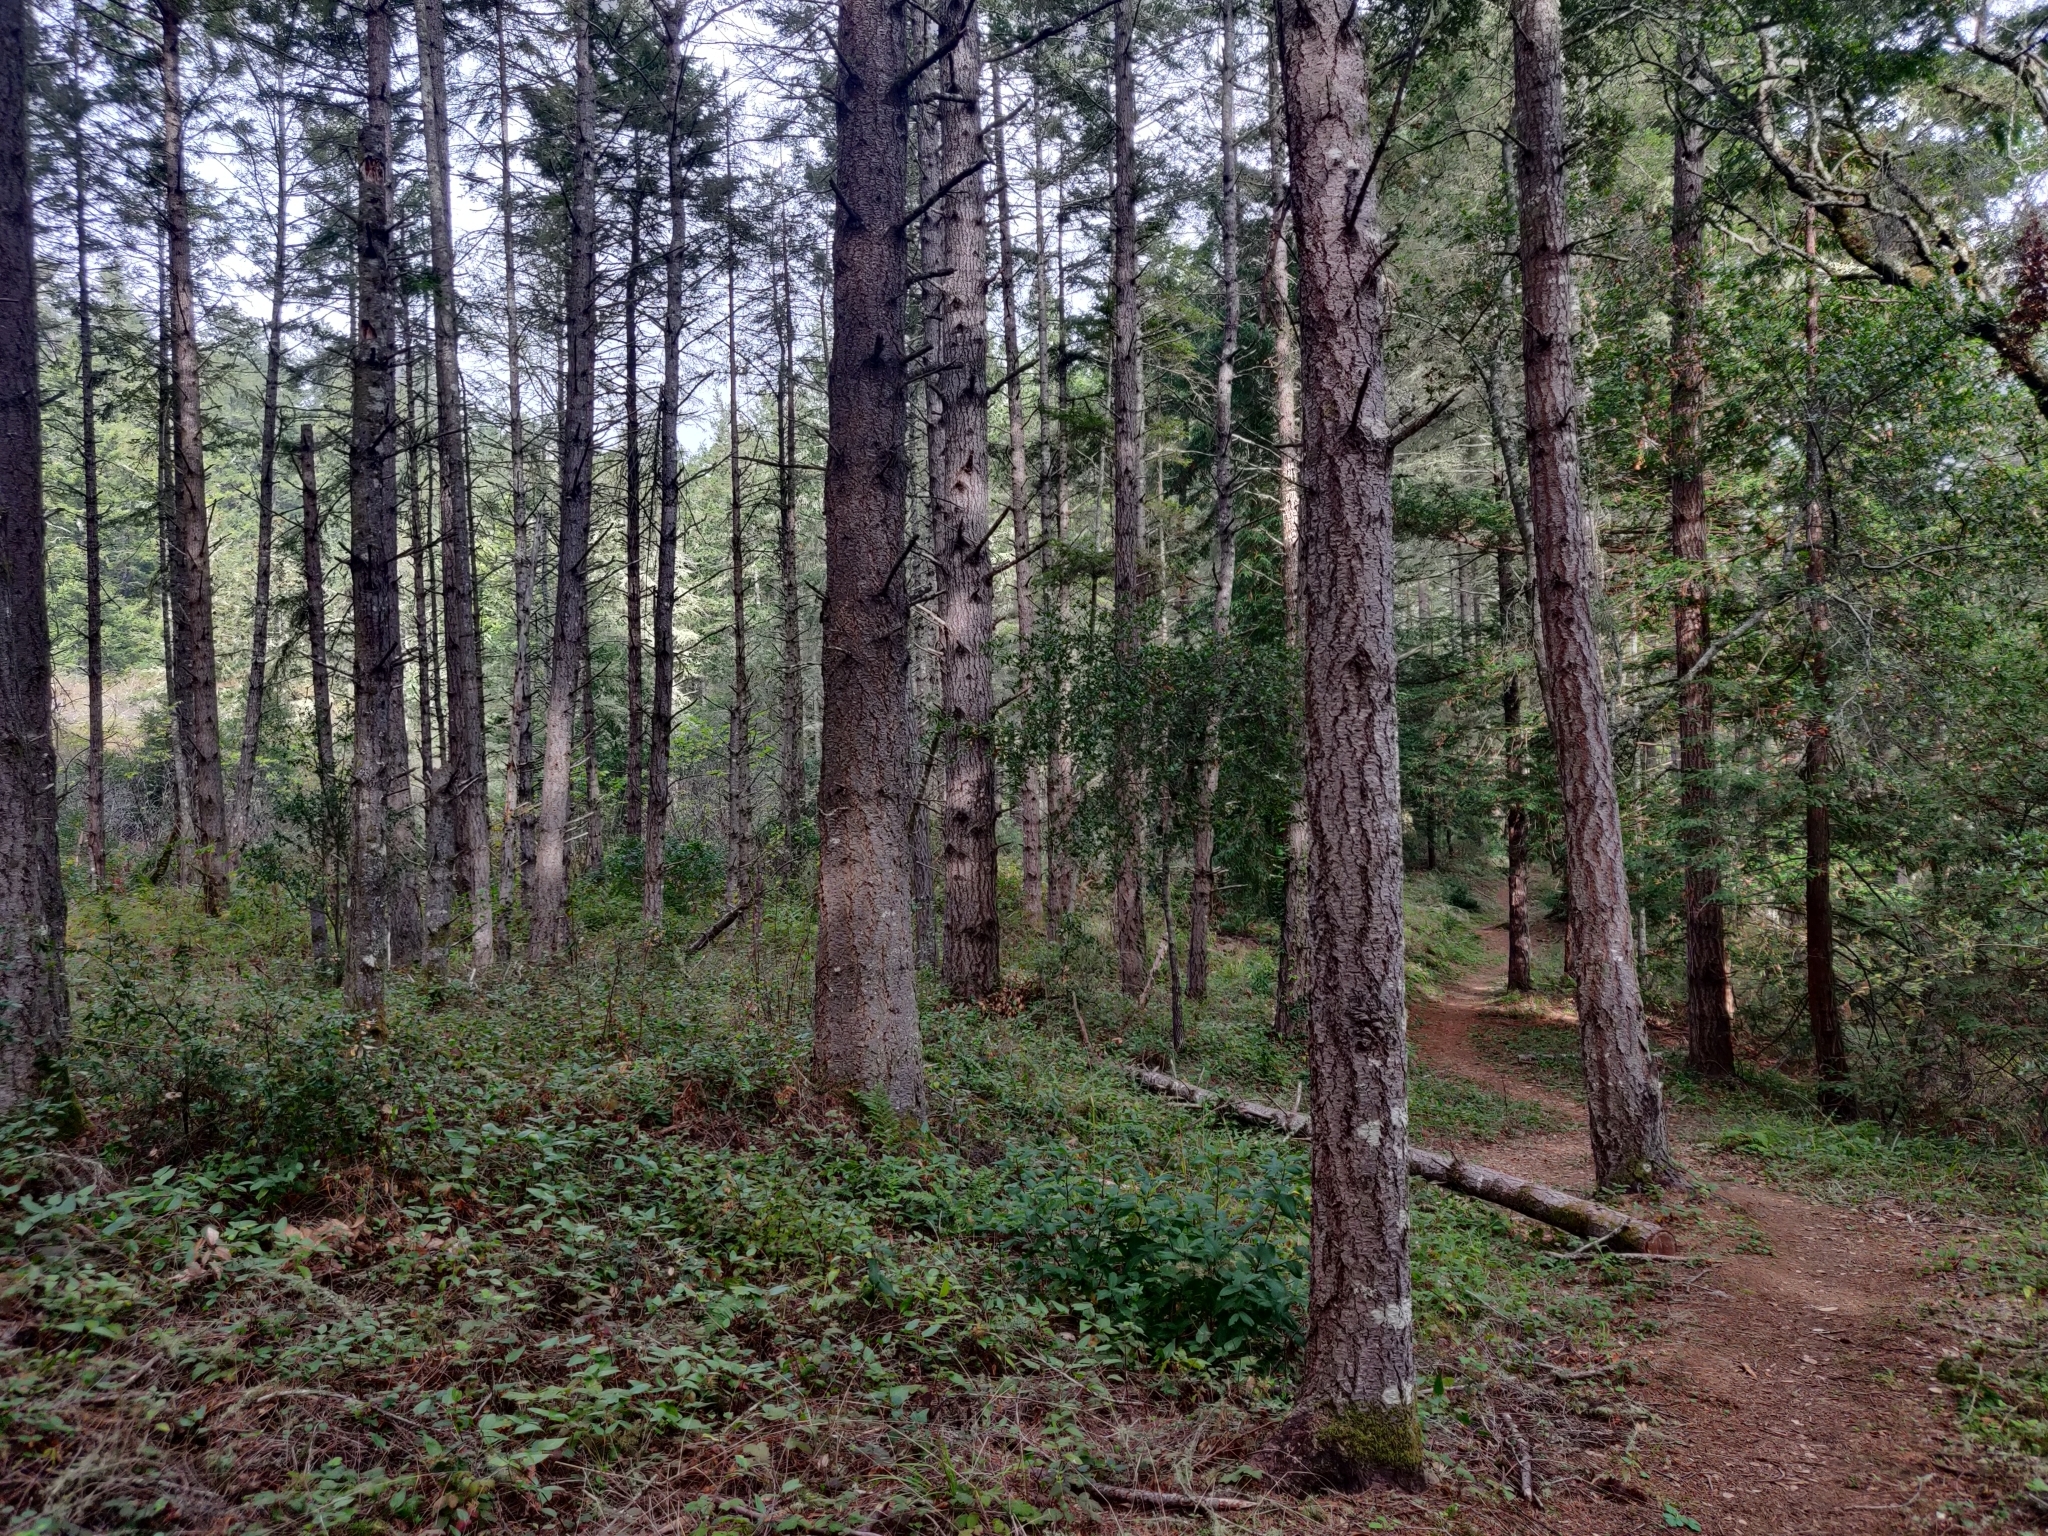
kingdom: Plantae
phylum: Tracheophyta
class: Pinopsida
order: Pinales
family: Pinaceae
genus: Pseudotsuga
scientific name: Pseudotsuga menziesii
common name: Douglas fir
